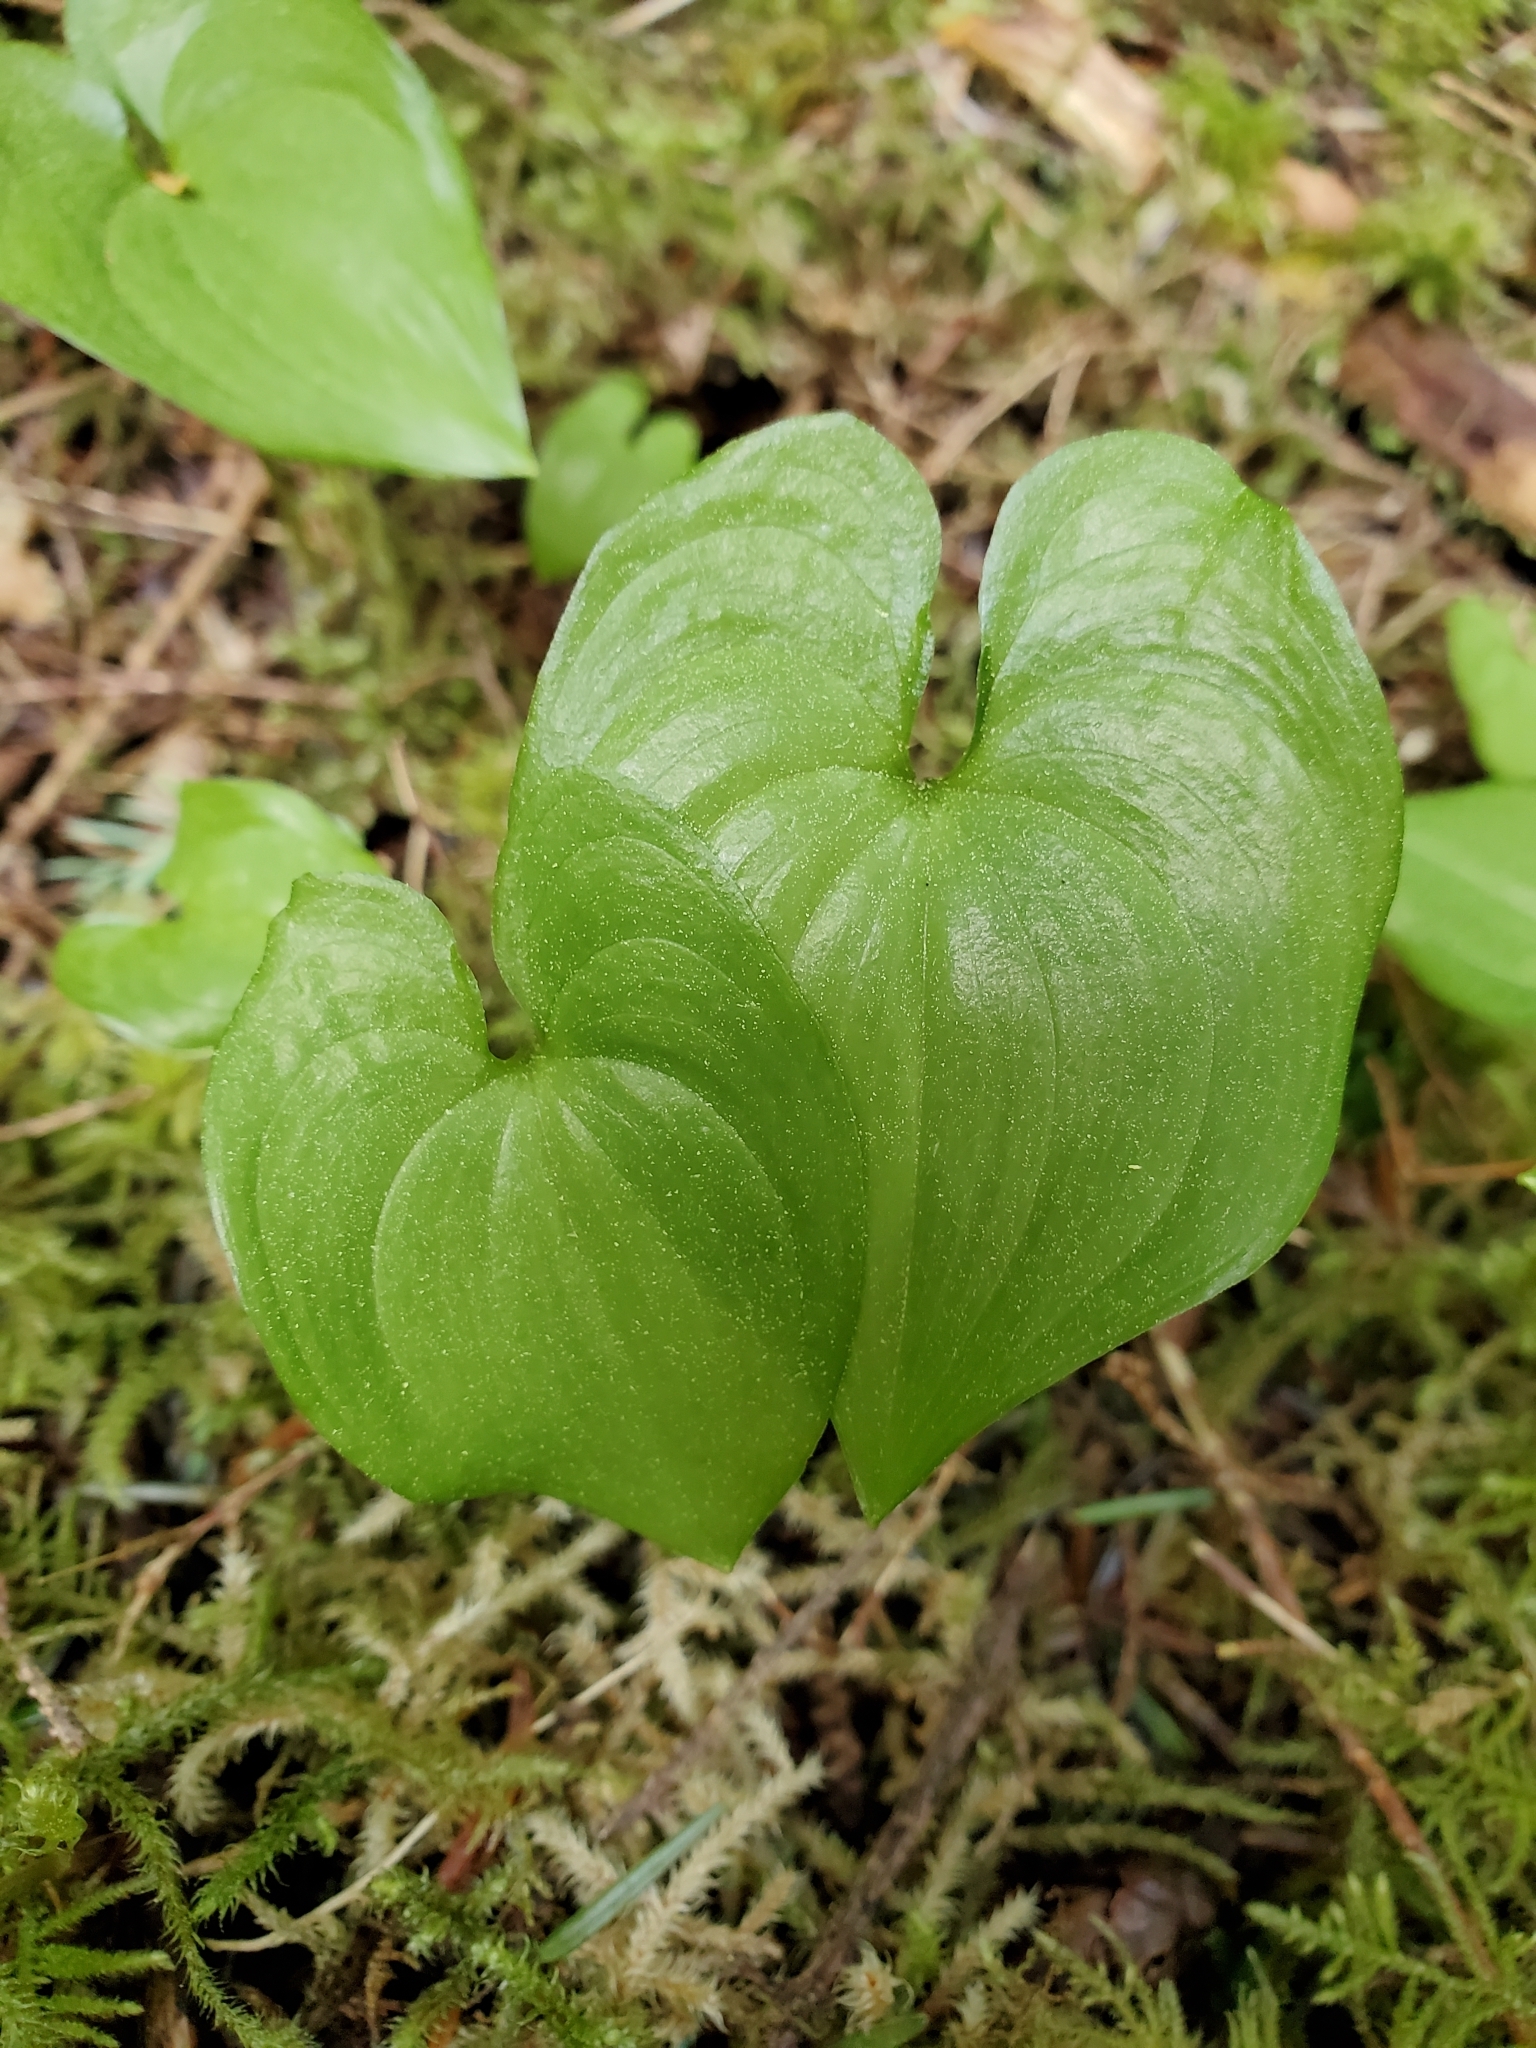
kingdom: Plantae
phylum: Tracheophyta
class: Liliopsida
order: Asparagales
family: Asparagaceae
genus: Maianthemum
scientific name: Maianthemum dilatatum
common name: False lily-of-the-valley
